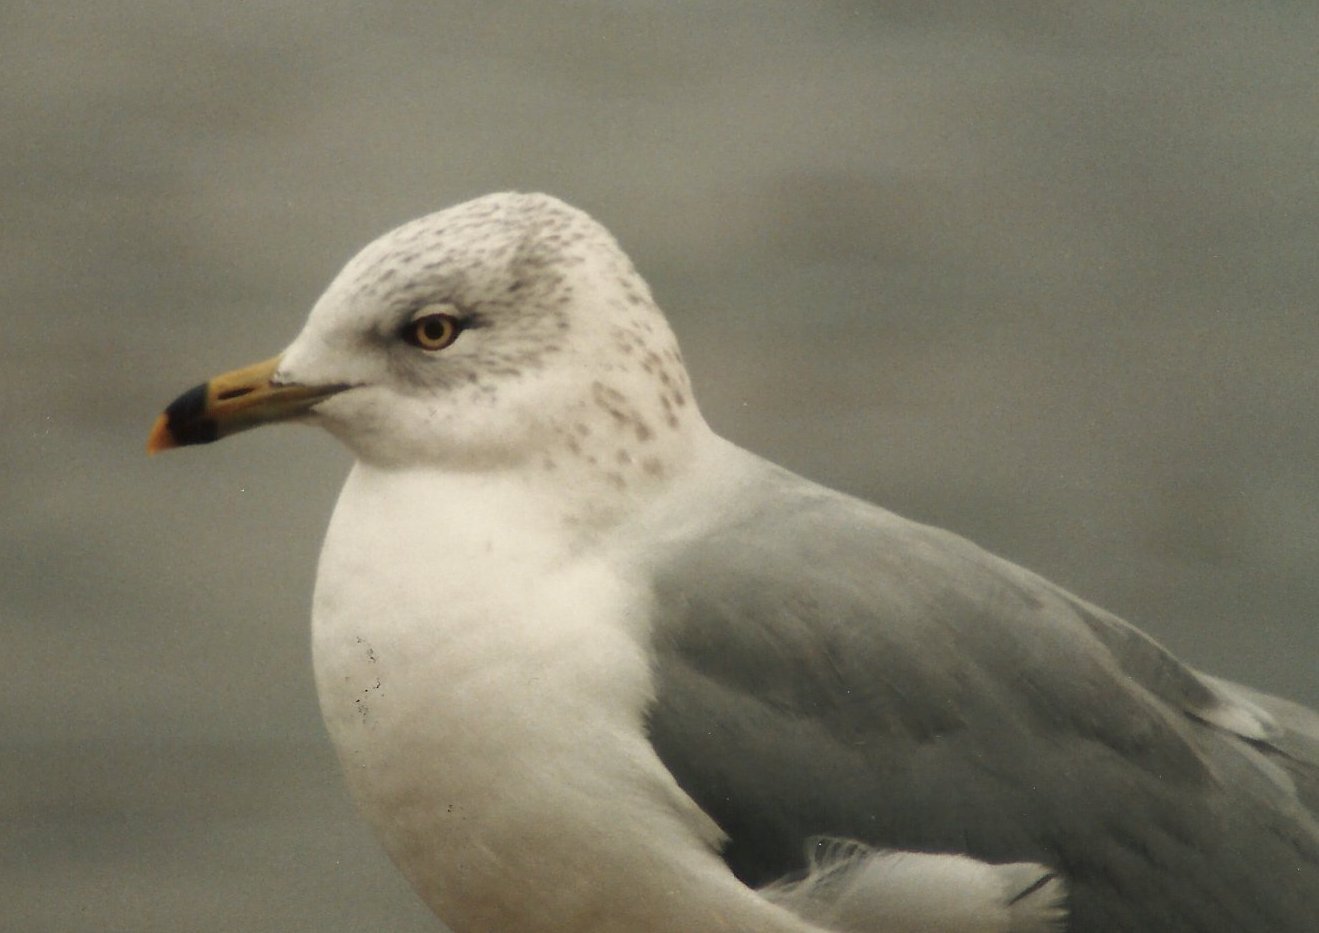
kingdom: Animalia
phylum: Chordata
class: Aves
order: Charadriiformes
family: Laridae
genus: Larus
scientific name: Larus delawarensis
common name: Ring-billed gull
